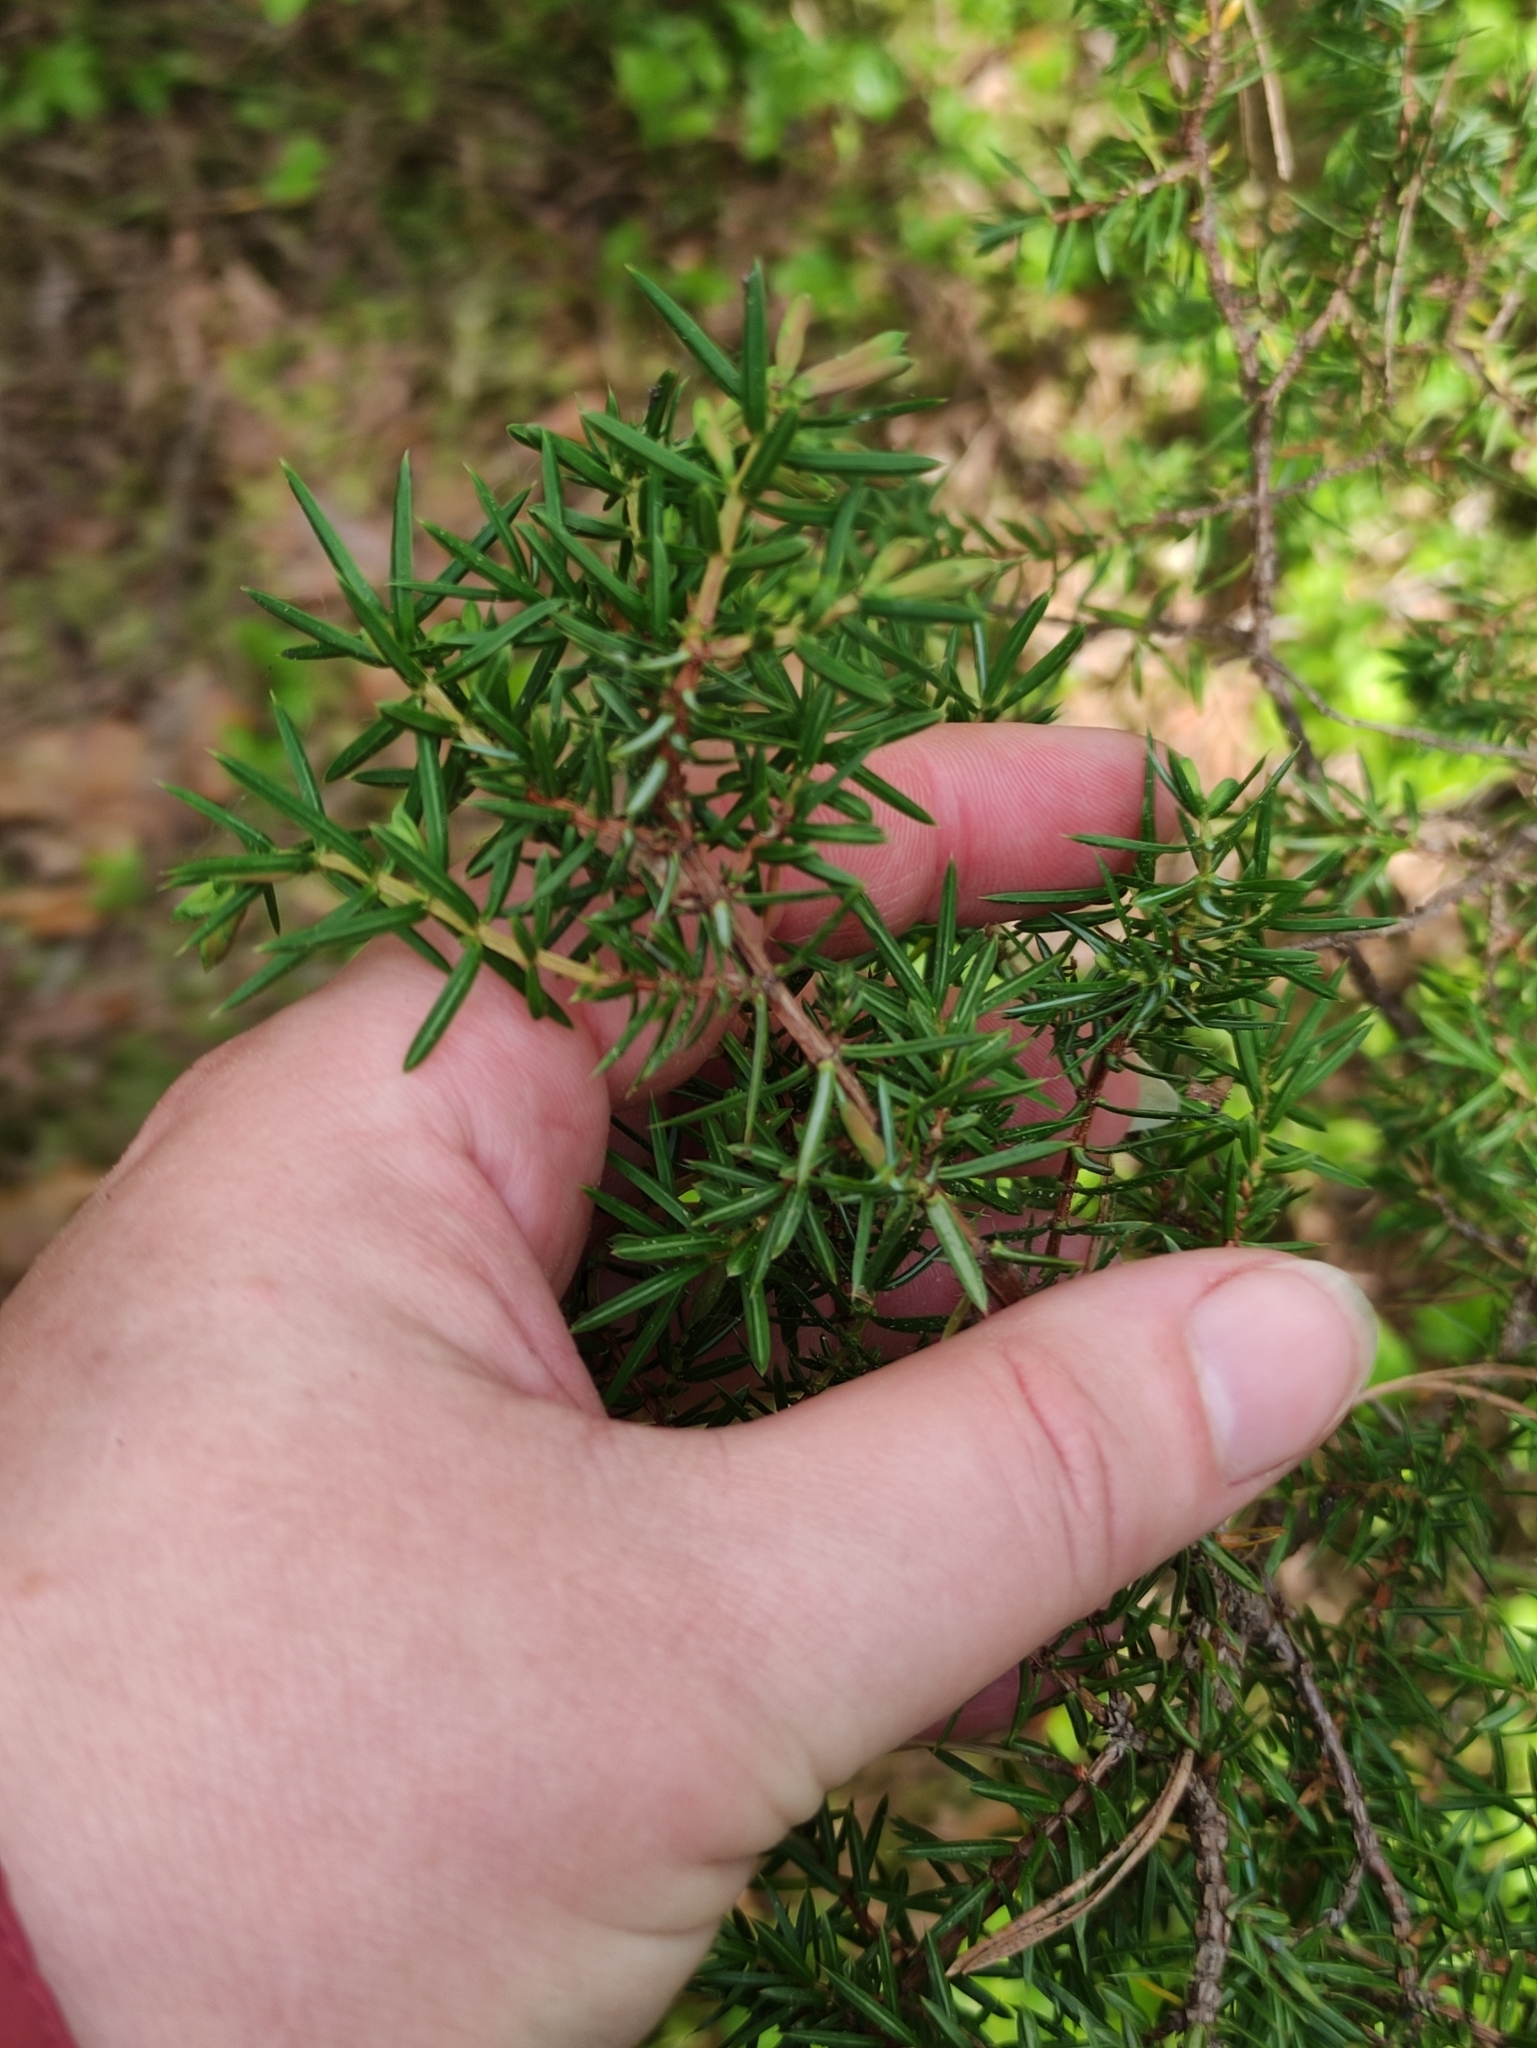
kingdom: Plantae
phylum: Tracheophyta
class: Pinopsida
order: Pinales
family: Cupressaceae
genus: Juniperus
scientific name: Juniperus communis
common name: Common juniper
